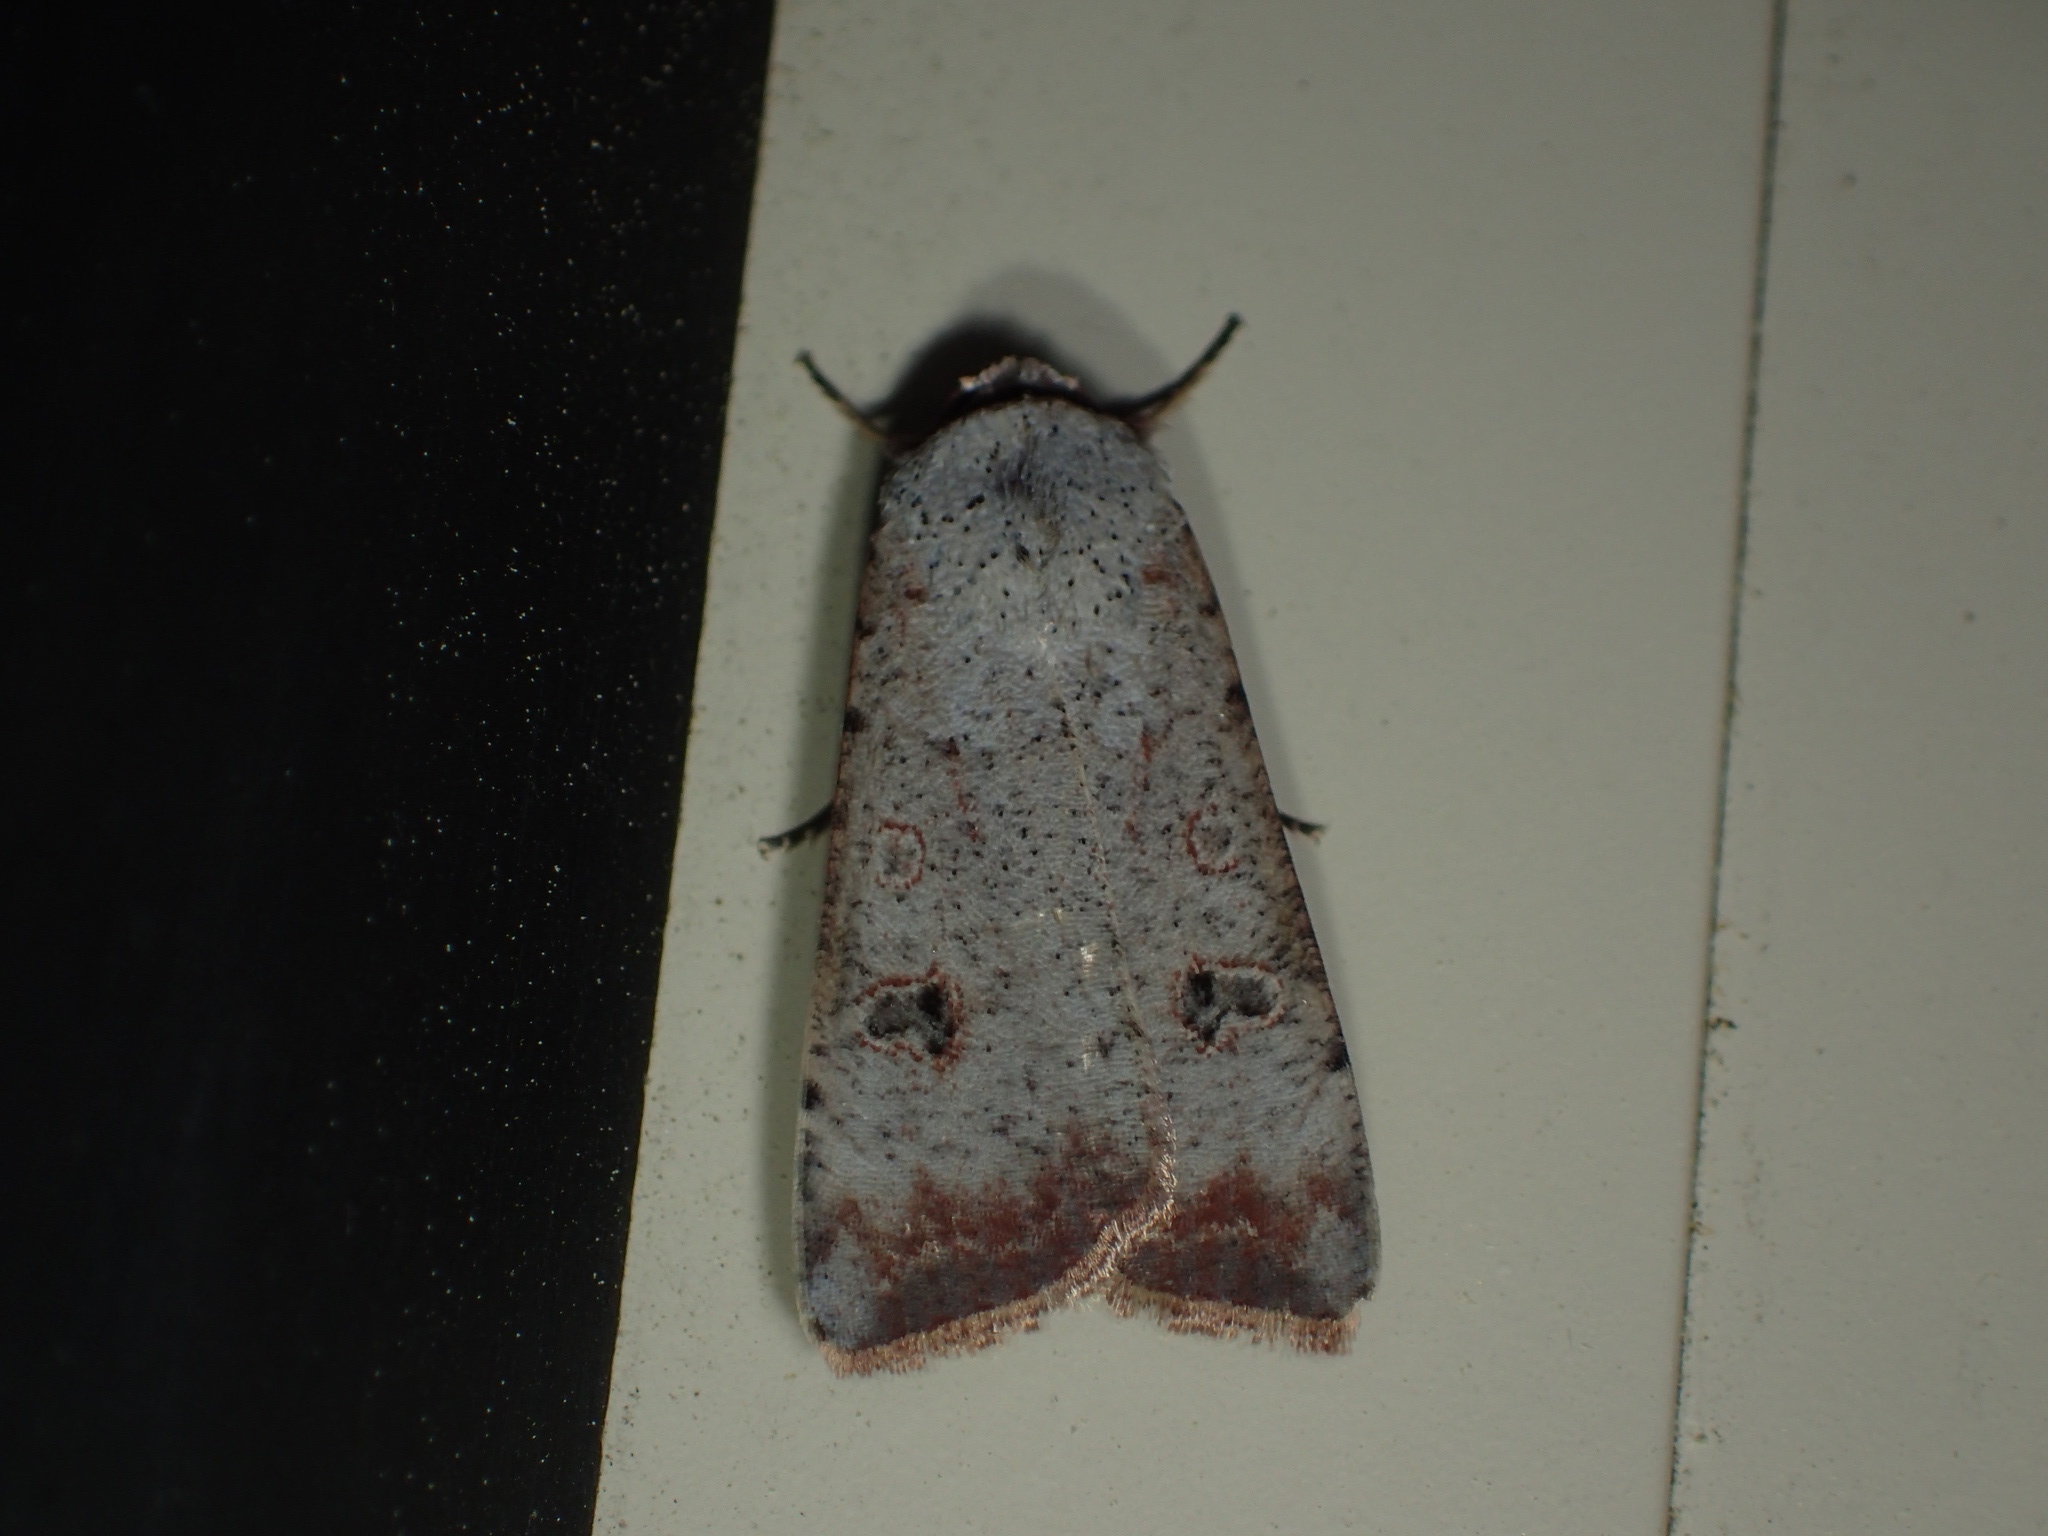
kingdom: Animalia
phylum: Arthropoda
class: Insecta
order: Lepidoptera
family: Noctuidae
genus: Anicla
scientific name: Anicla infecta
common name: Green cutworm
